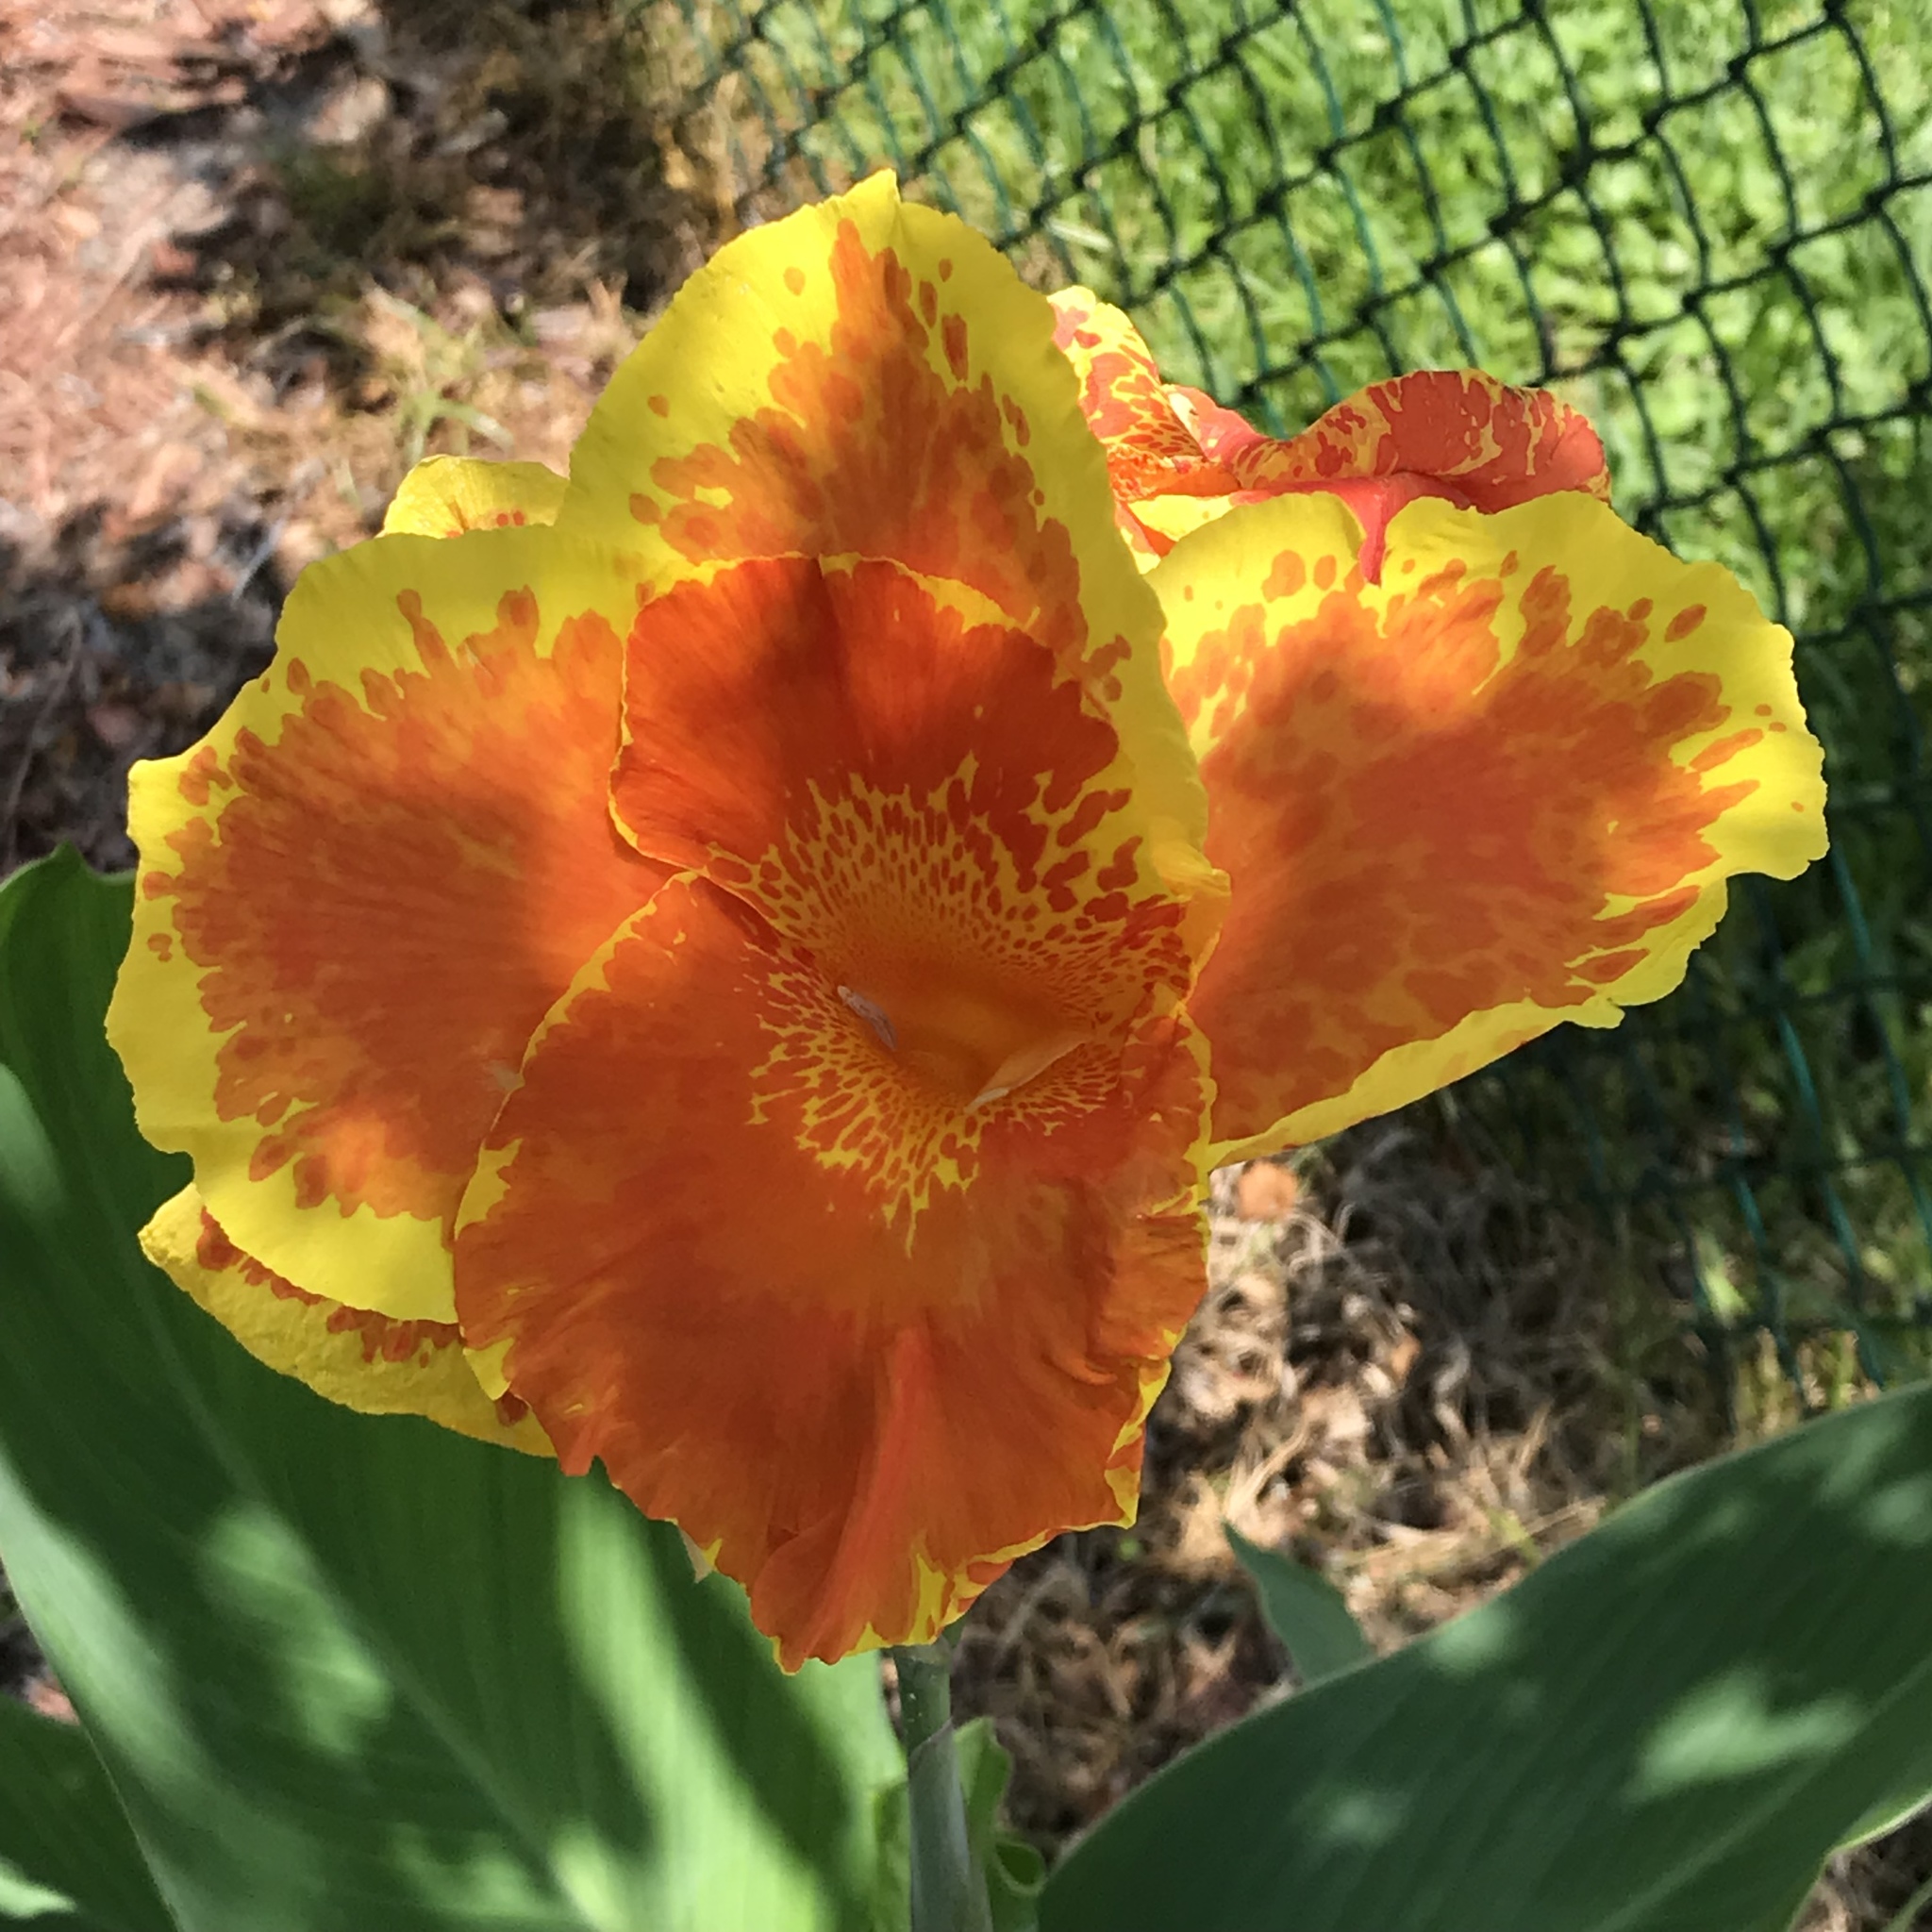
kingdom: Plantae
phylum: Tracheophyta
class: Liliopsida
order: Zingiberales
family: Cannaceae
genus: Canna
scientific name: Canna hybrida
